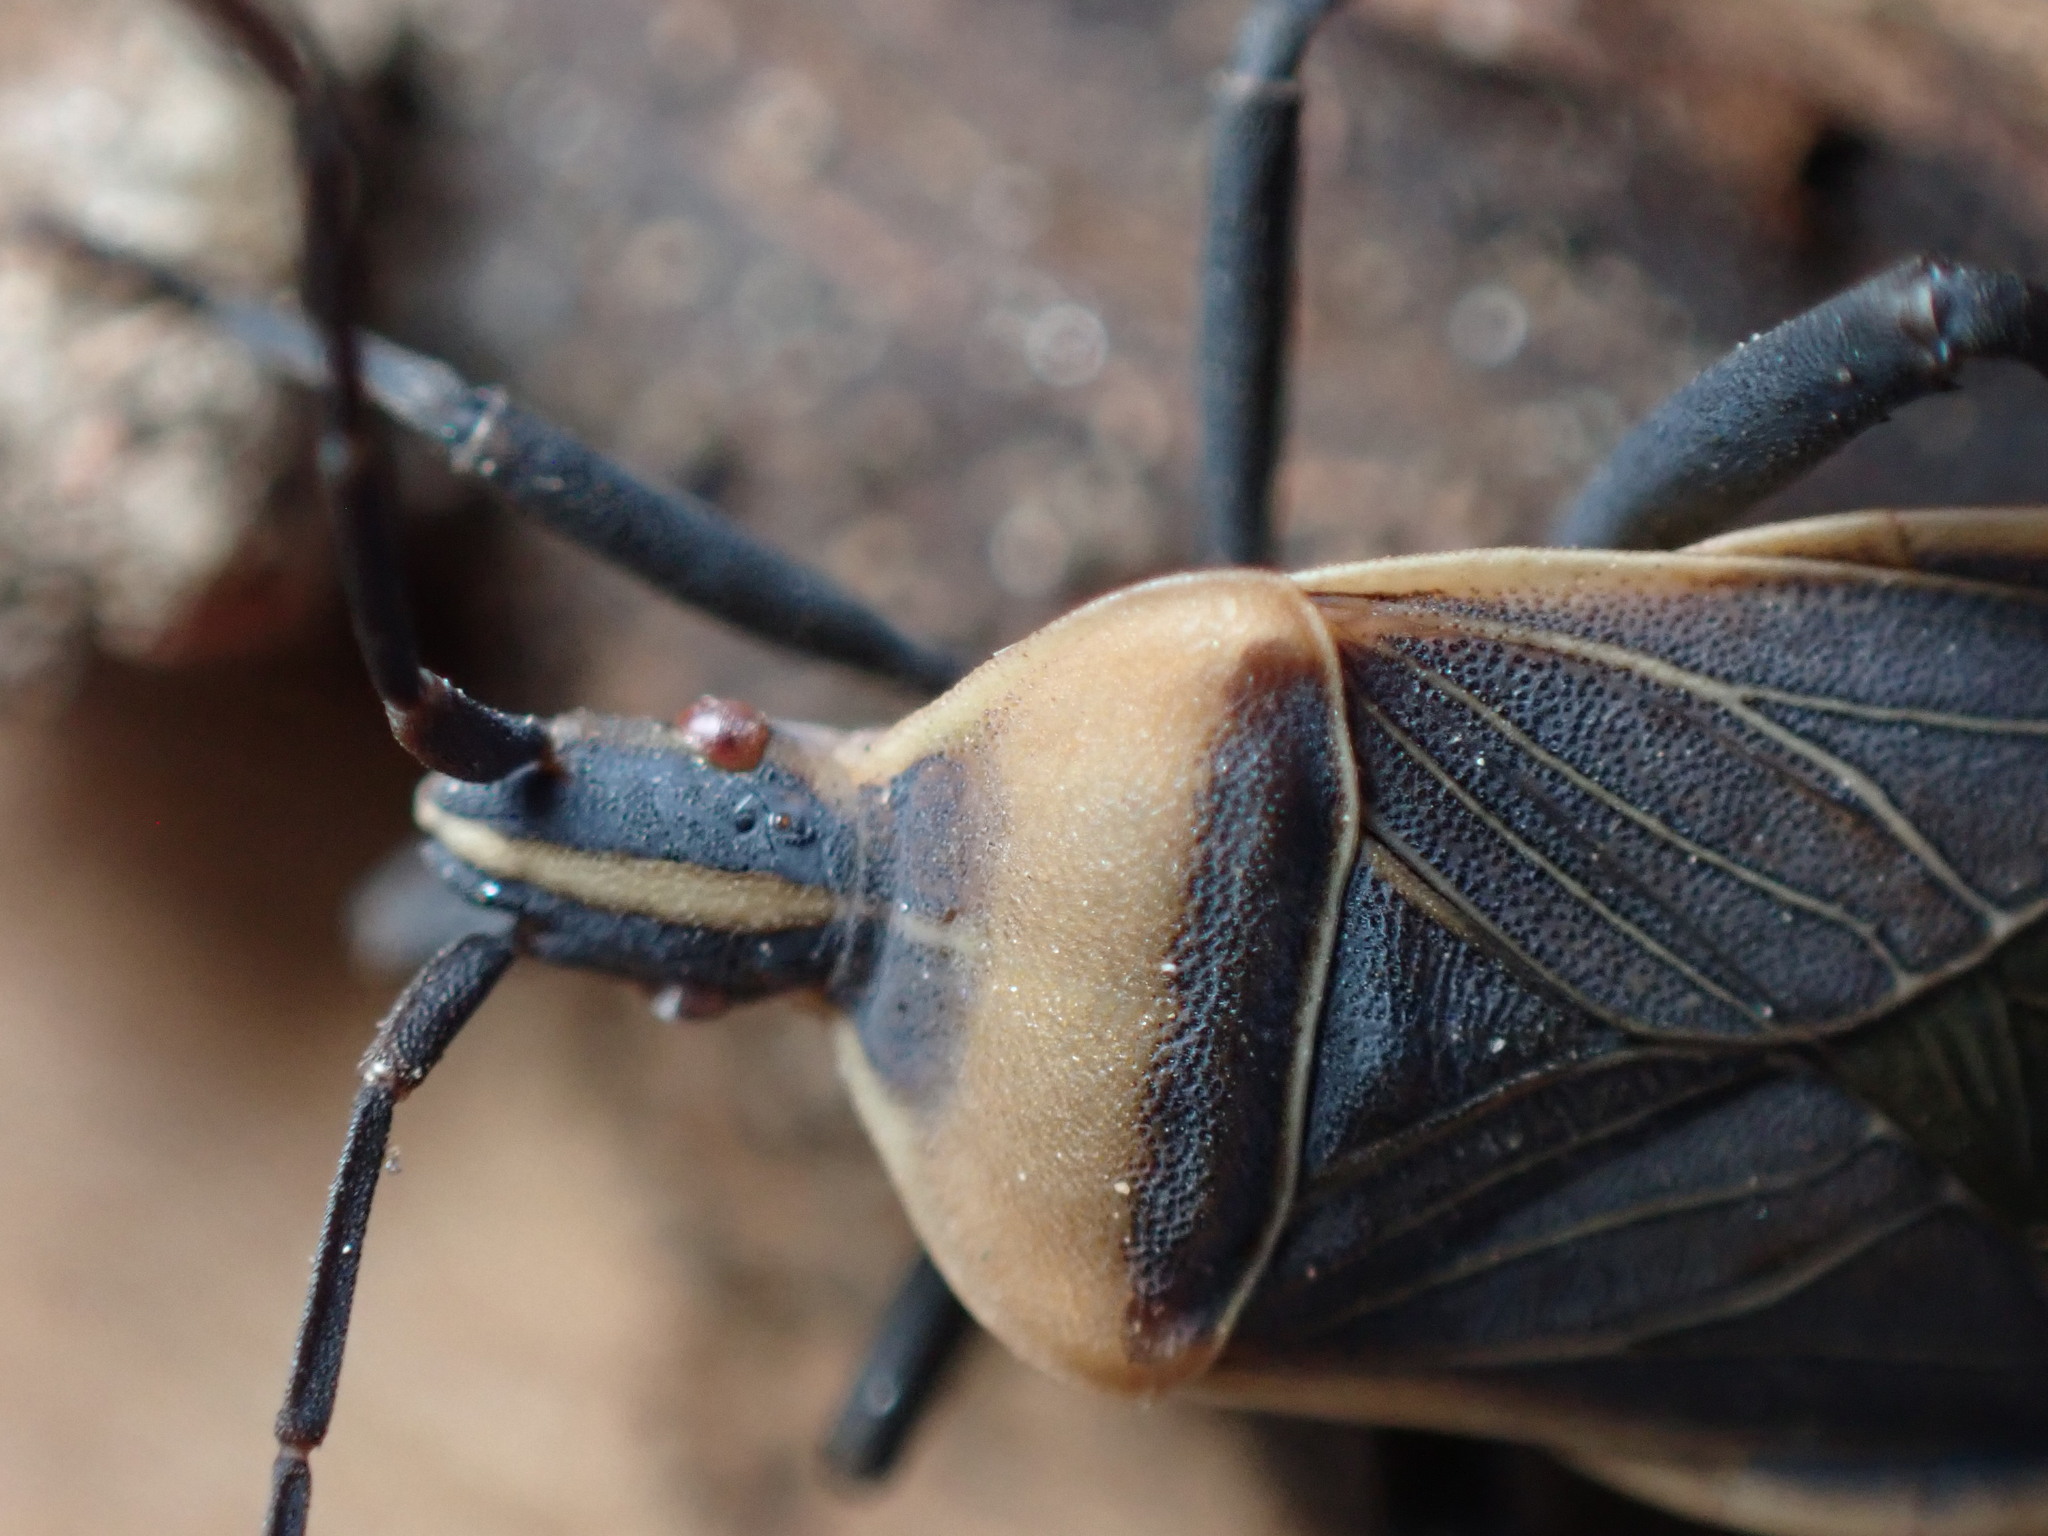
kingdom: Animalia
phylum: Arthropoda
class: Insecta
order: Hemiptera
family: Coreidae
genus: Chelinidea
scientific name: Chelinidea vittiger
